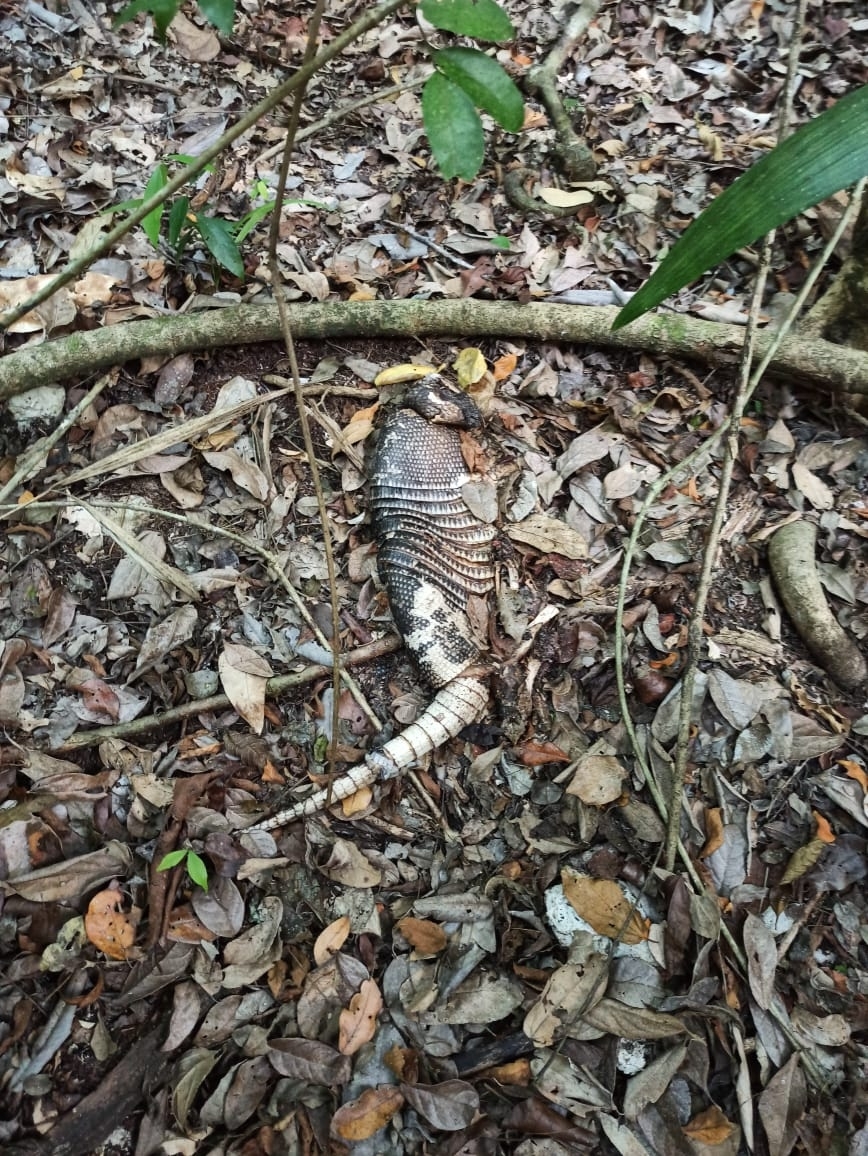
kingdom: Animalia
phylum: Chordata
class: Mammalia
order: Cingulata
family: Dasypodidae
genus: Dasypus
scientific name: Dasypus novemcinctus
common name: Nine-banded armadillo
